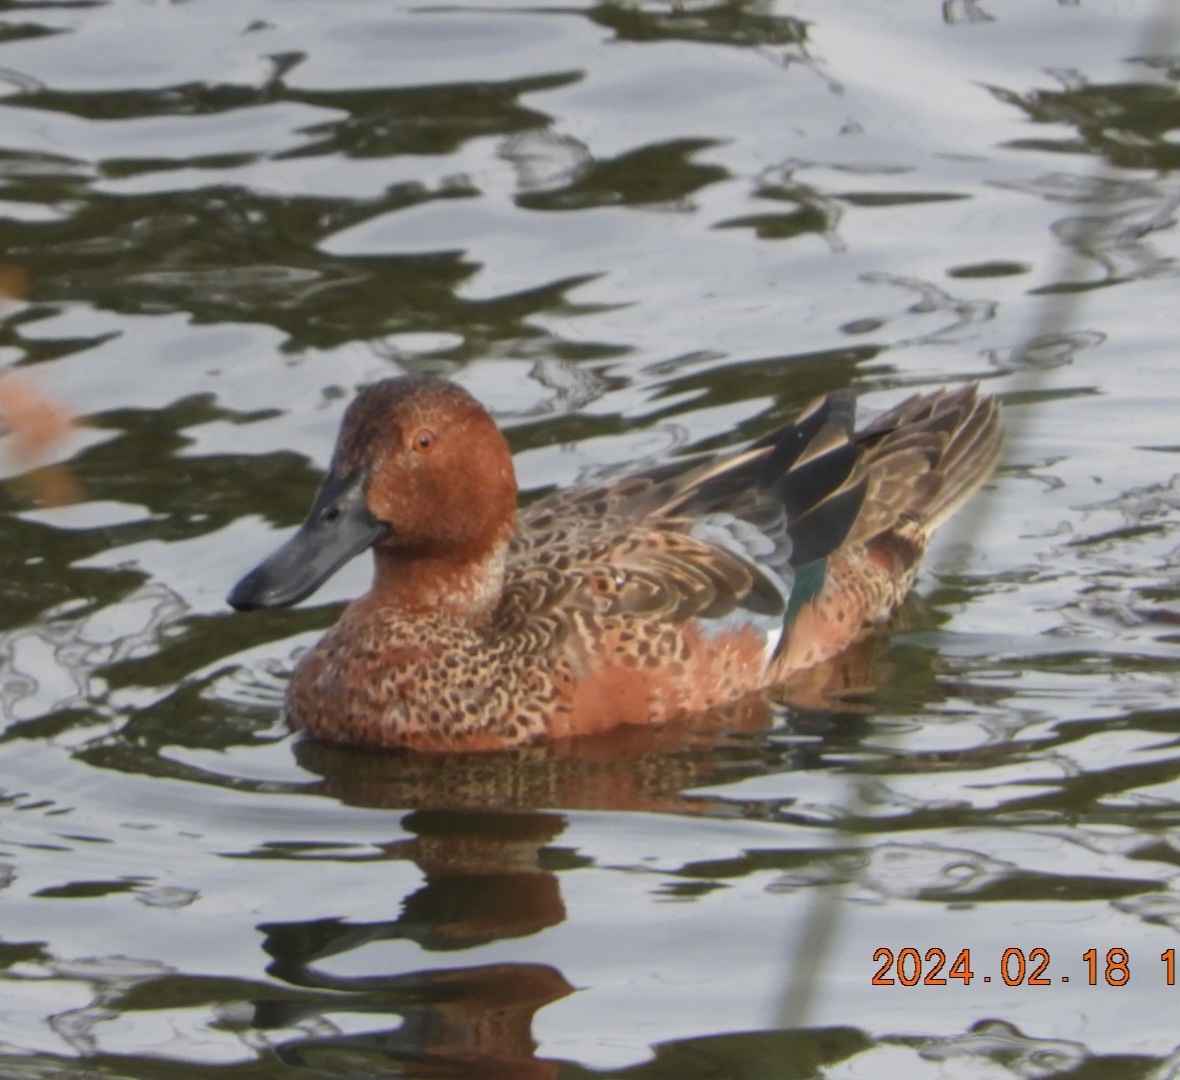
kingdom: Animalia
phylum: Chordata
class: Aves
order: Anseriformes
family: Anatidae
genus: Spatula
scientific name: Spatula cyanoptera
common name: Cinnamon teal
